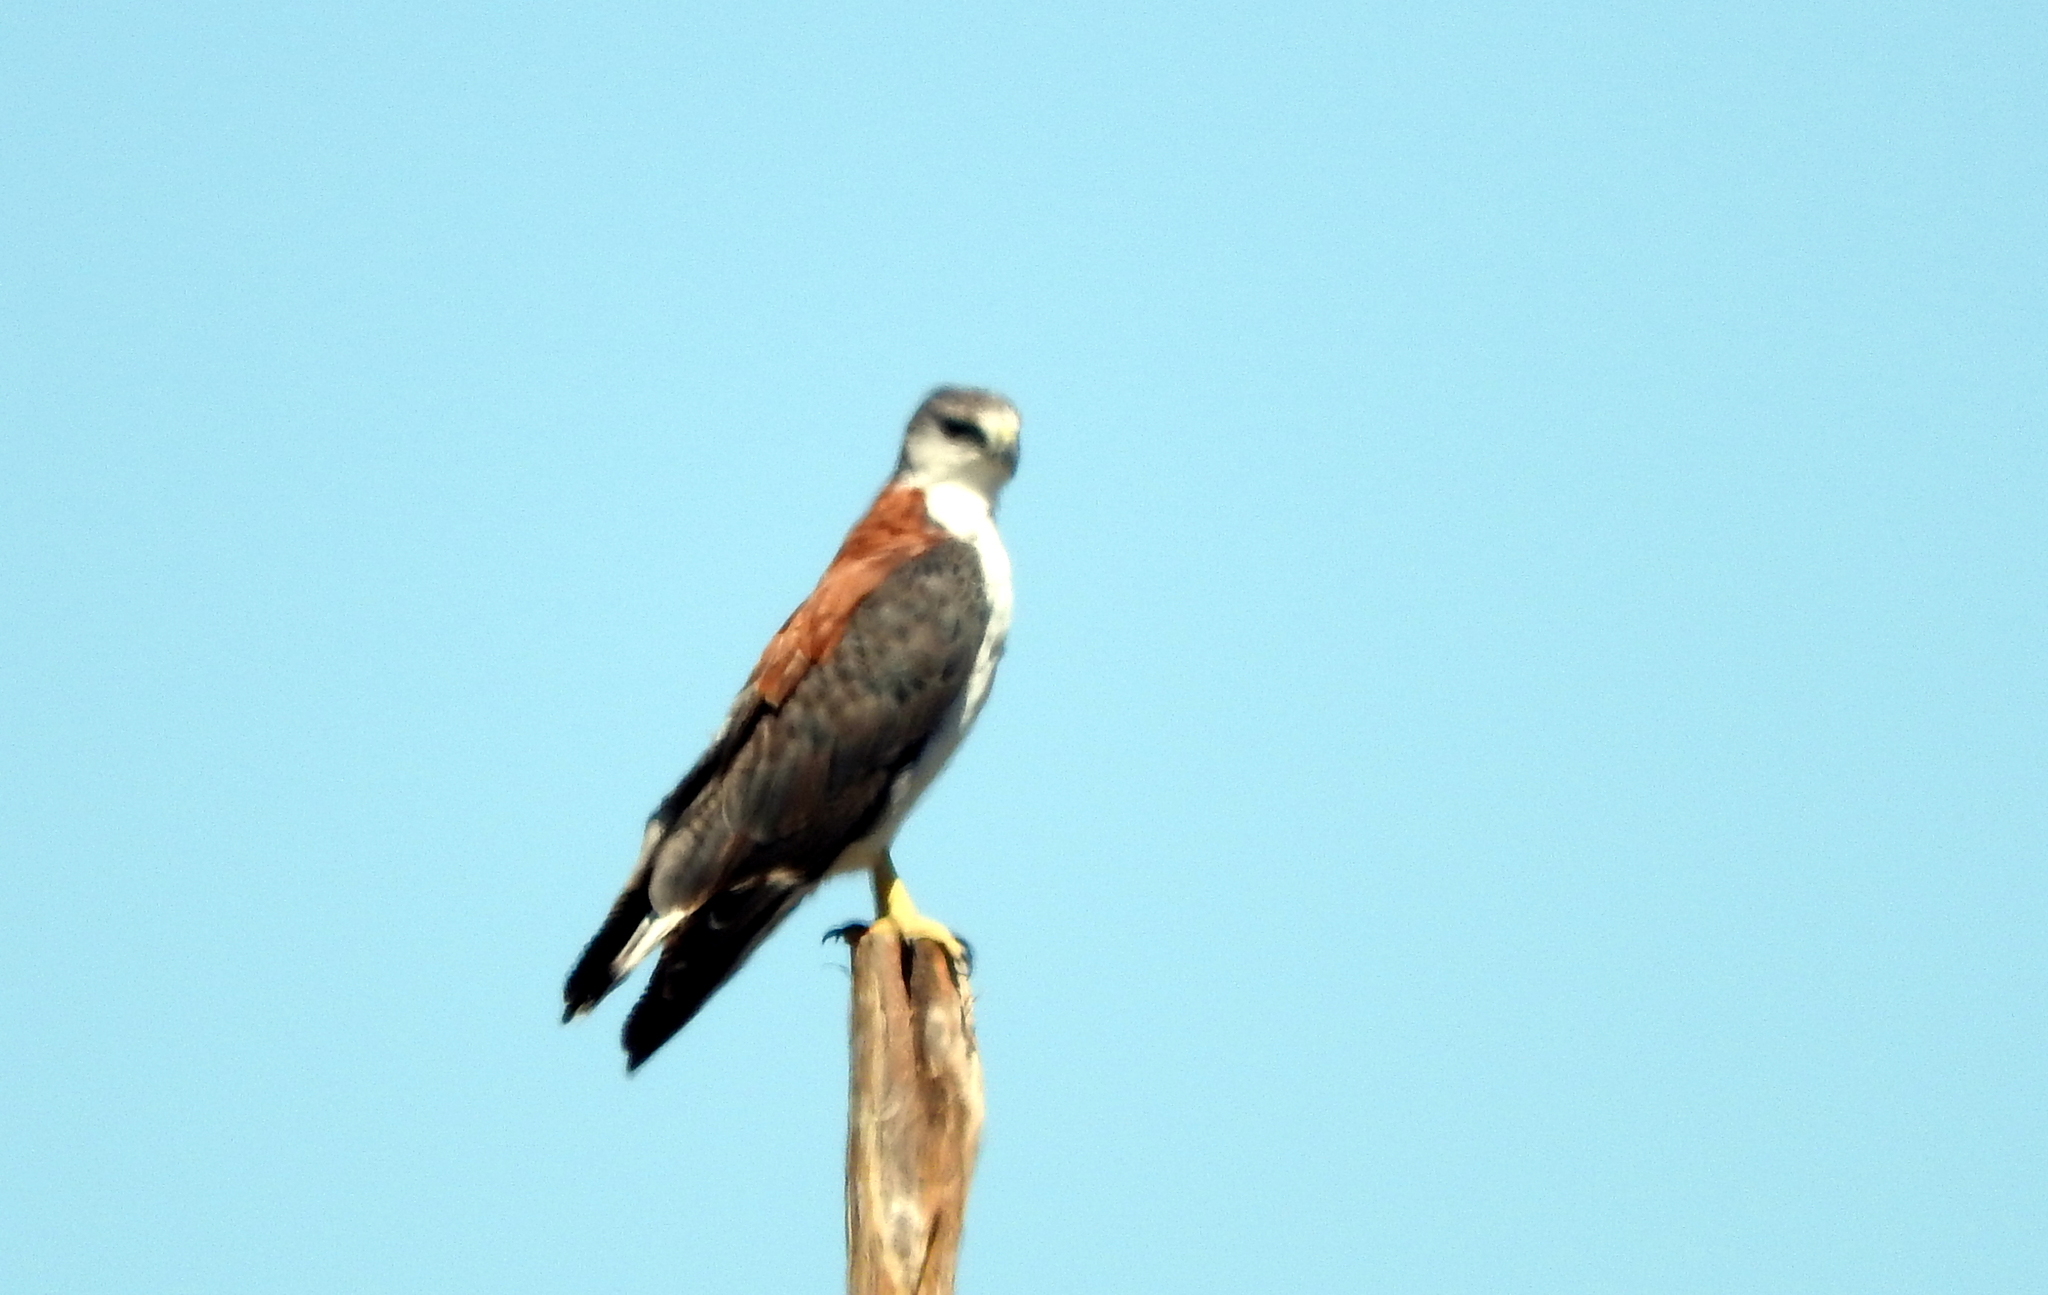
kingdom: Animalia
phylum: Chordata
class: Aves
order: Accipitriformes
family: Accipitridae
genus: Buteo
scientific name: Buteo polyosoma
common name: Variable hawk
